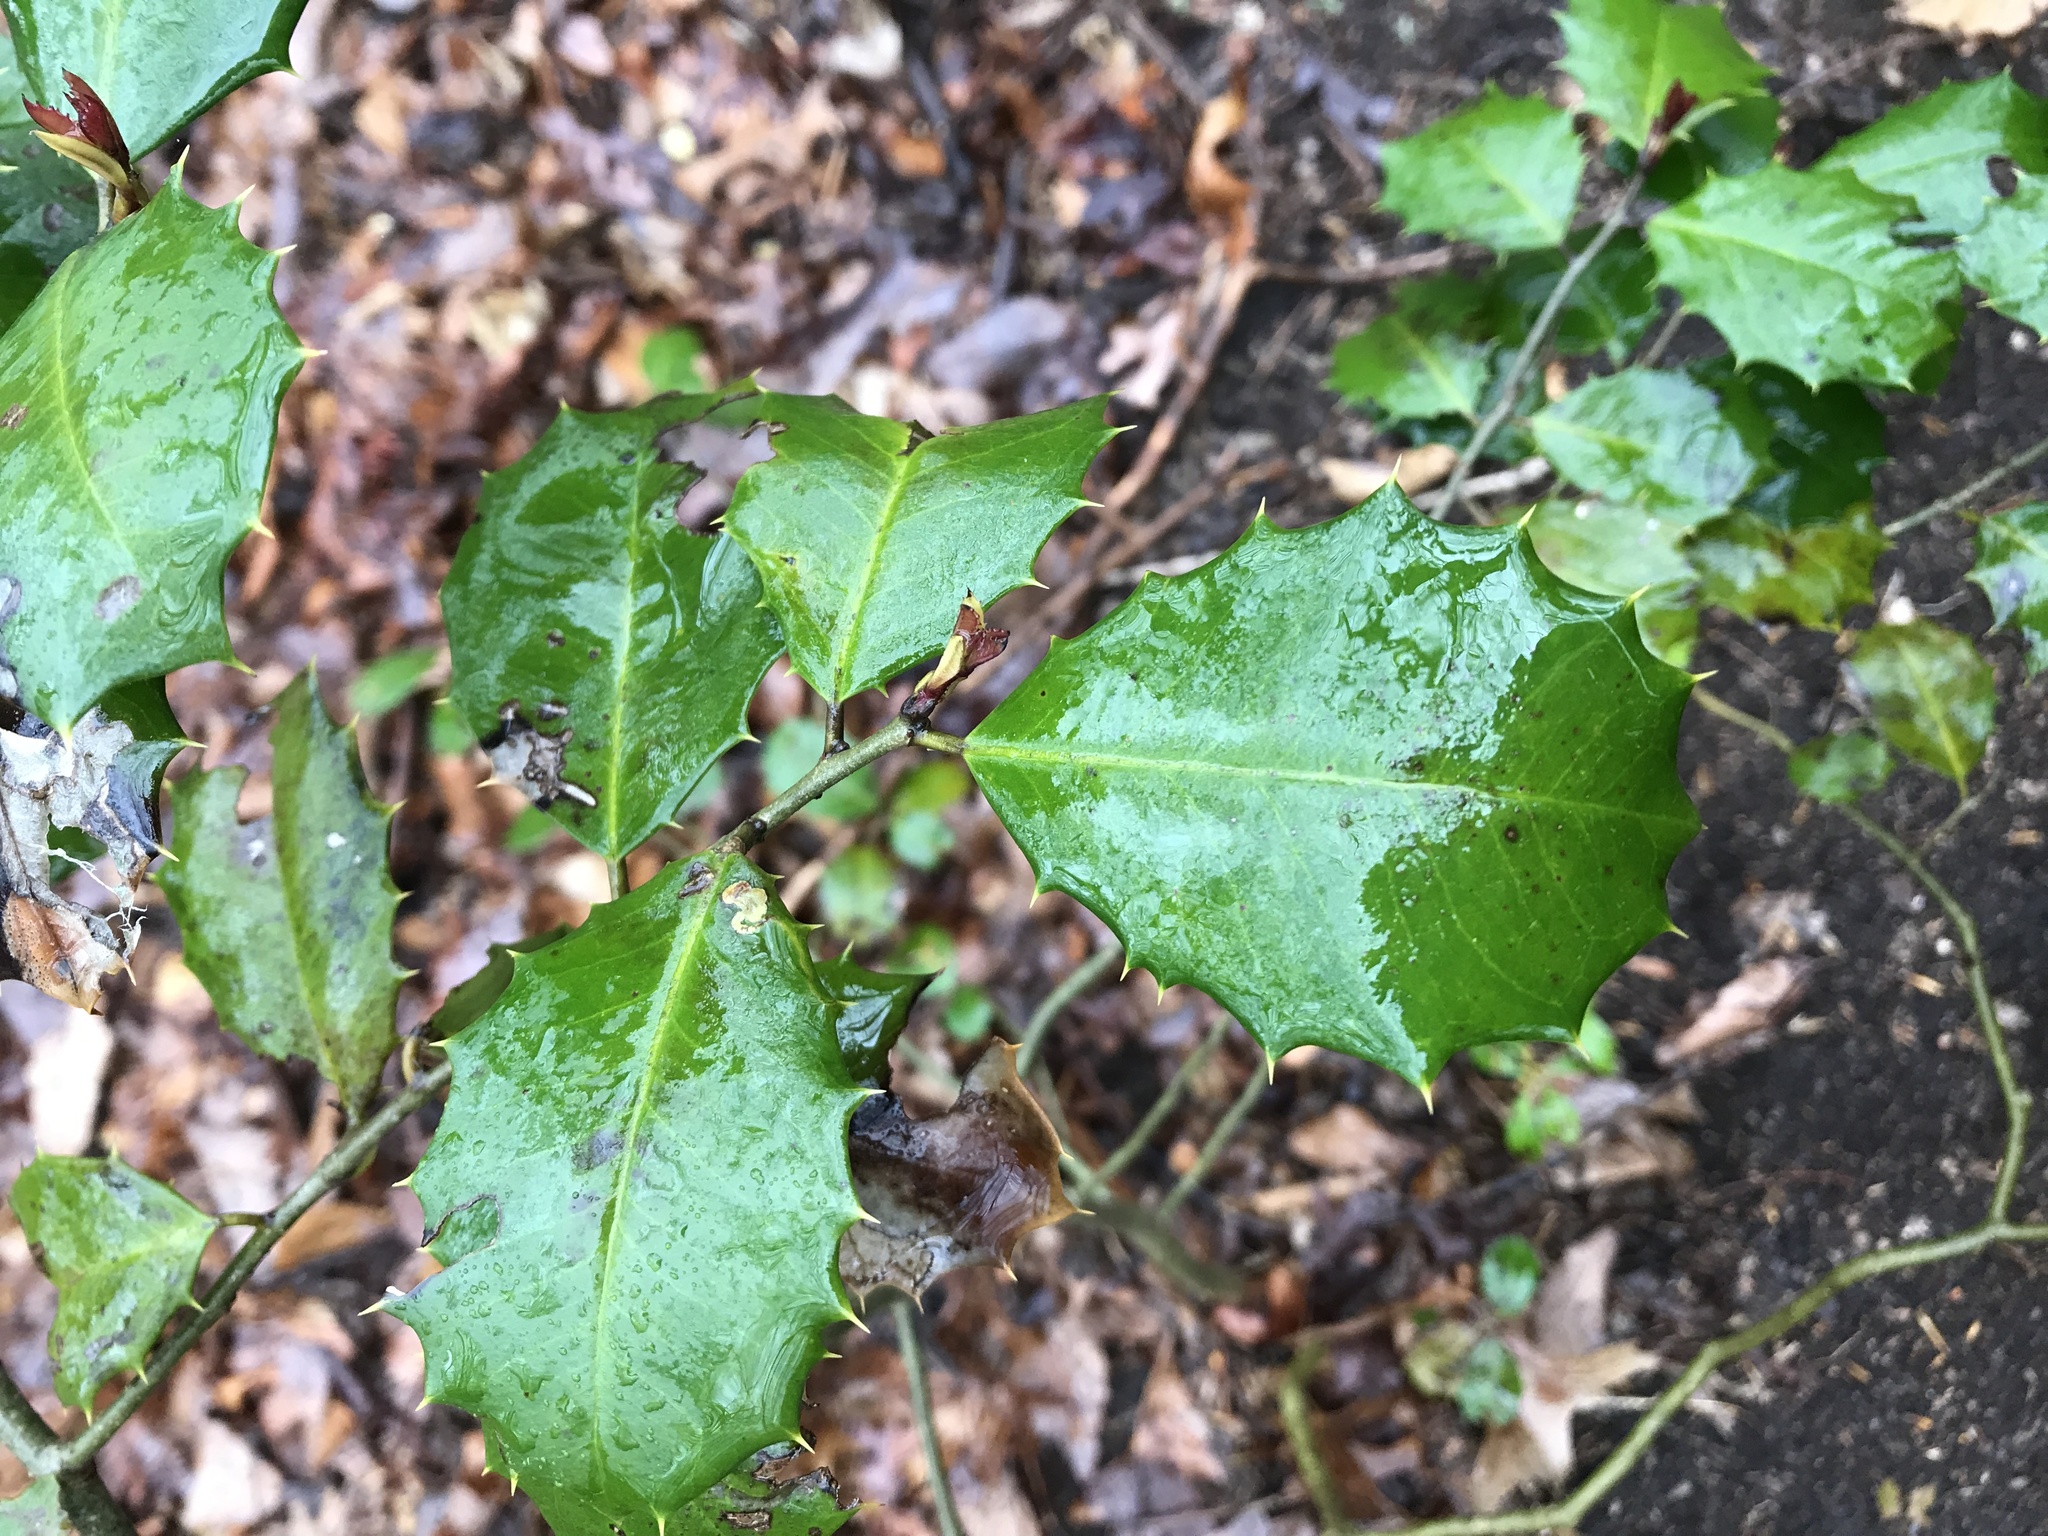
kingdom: Plantae
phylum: Tracheophyta
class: Magnoliopsida
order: Aquifoliales
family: Aquifoliaceae
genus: Ilex
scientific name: Ilex opaca
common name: American holly
